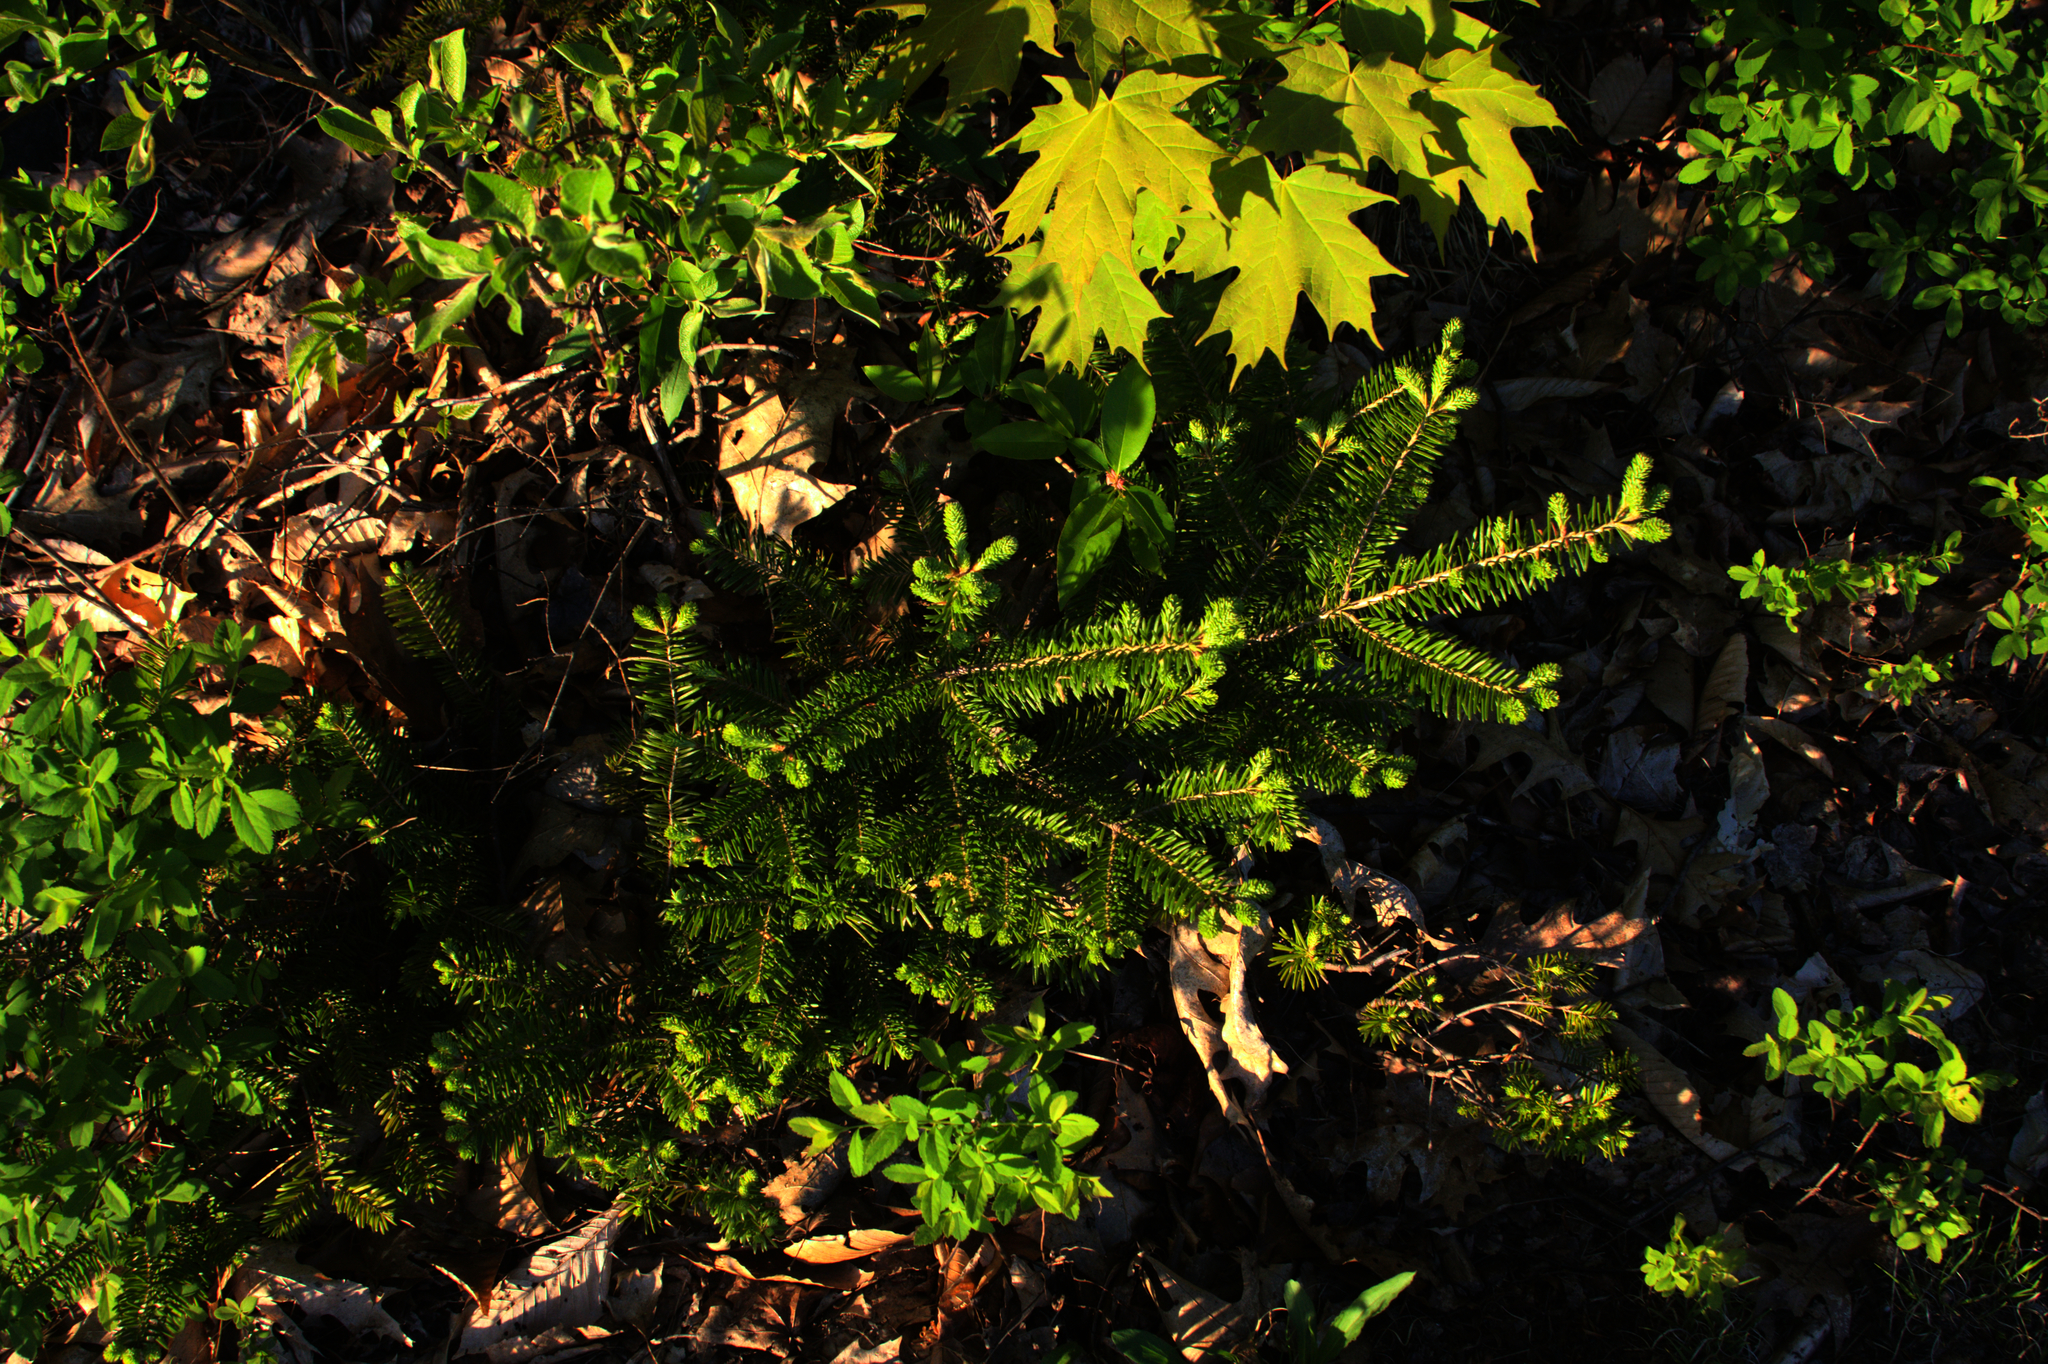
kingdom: Plantae
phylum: Tracheophyta
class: Pinopsida
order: Pinales
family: Pinaceae
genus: Abies
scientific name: Abies balsamea
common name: Balsam fir
